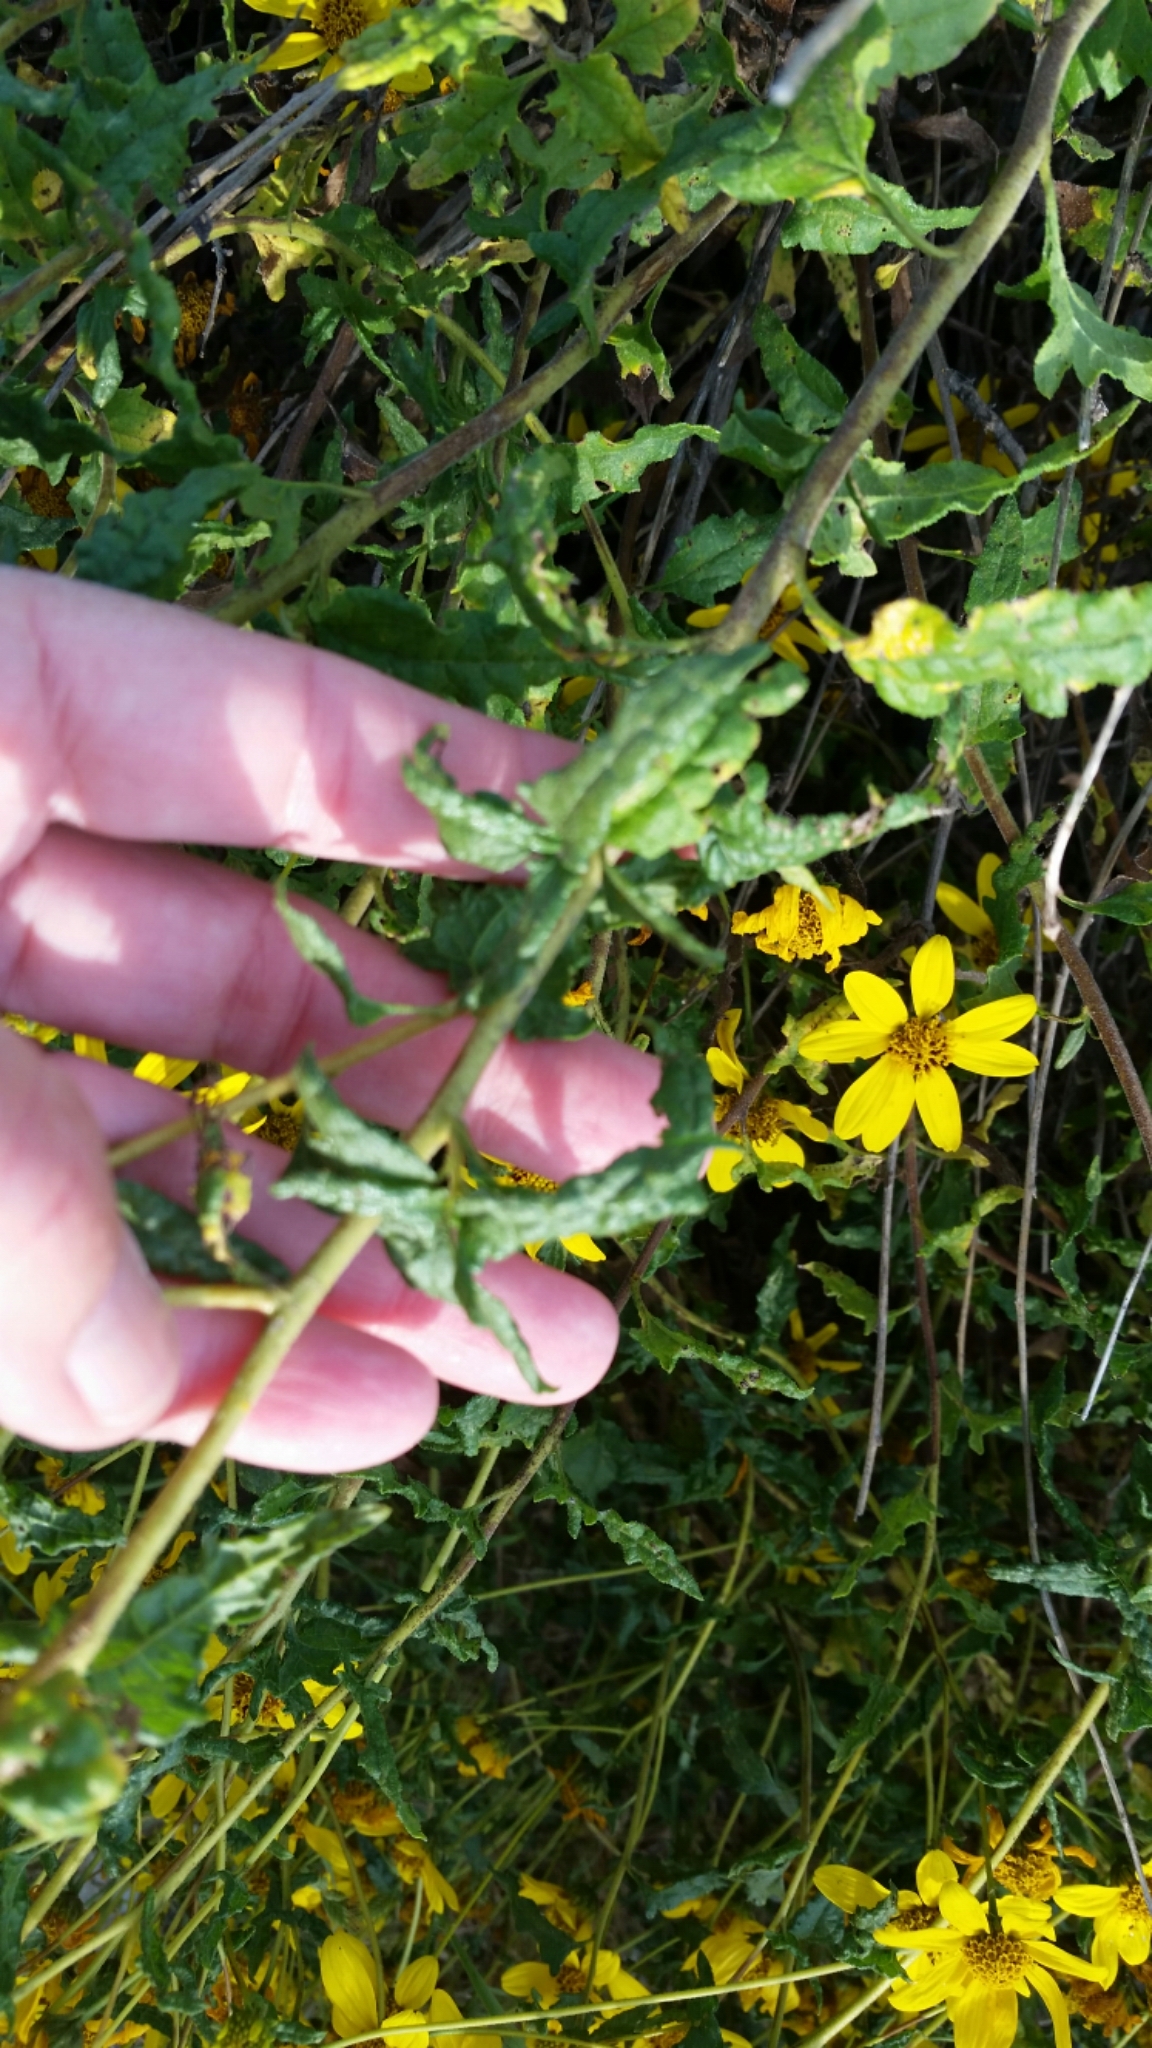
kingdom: Plantae
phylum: Tracheophyta
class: Magnoliopsida
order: Asterales
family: Asteraceae
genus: Bahiopsis
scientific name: Bahiopsis laciniata
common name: San diego county viguiera
